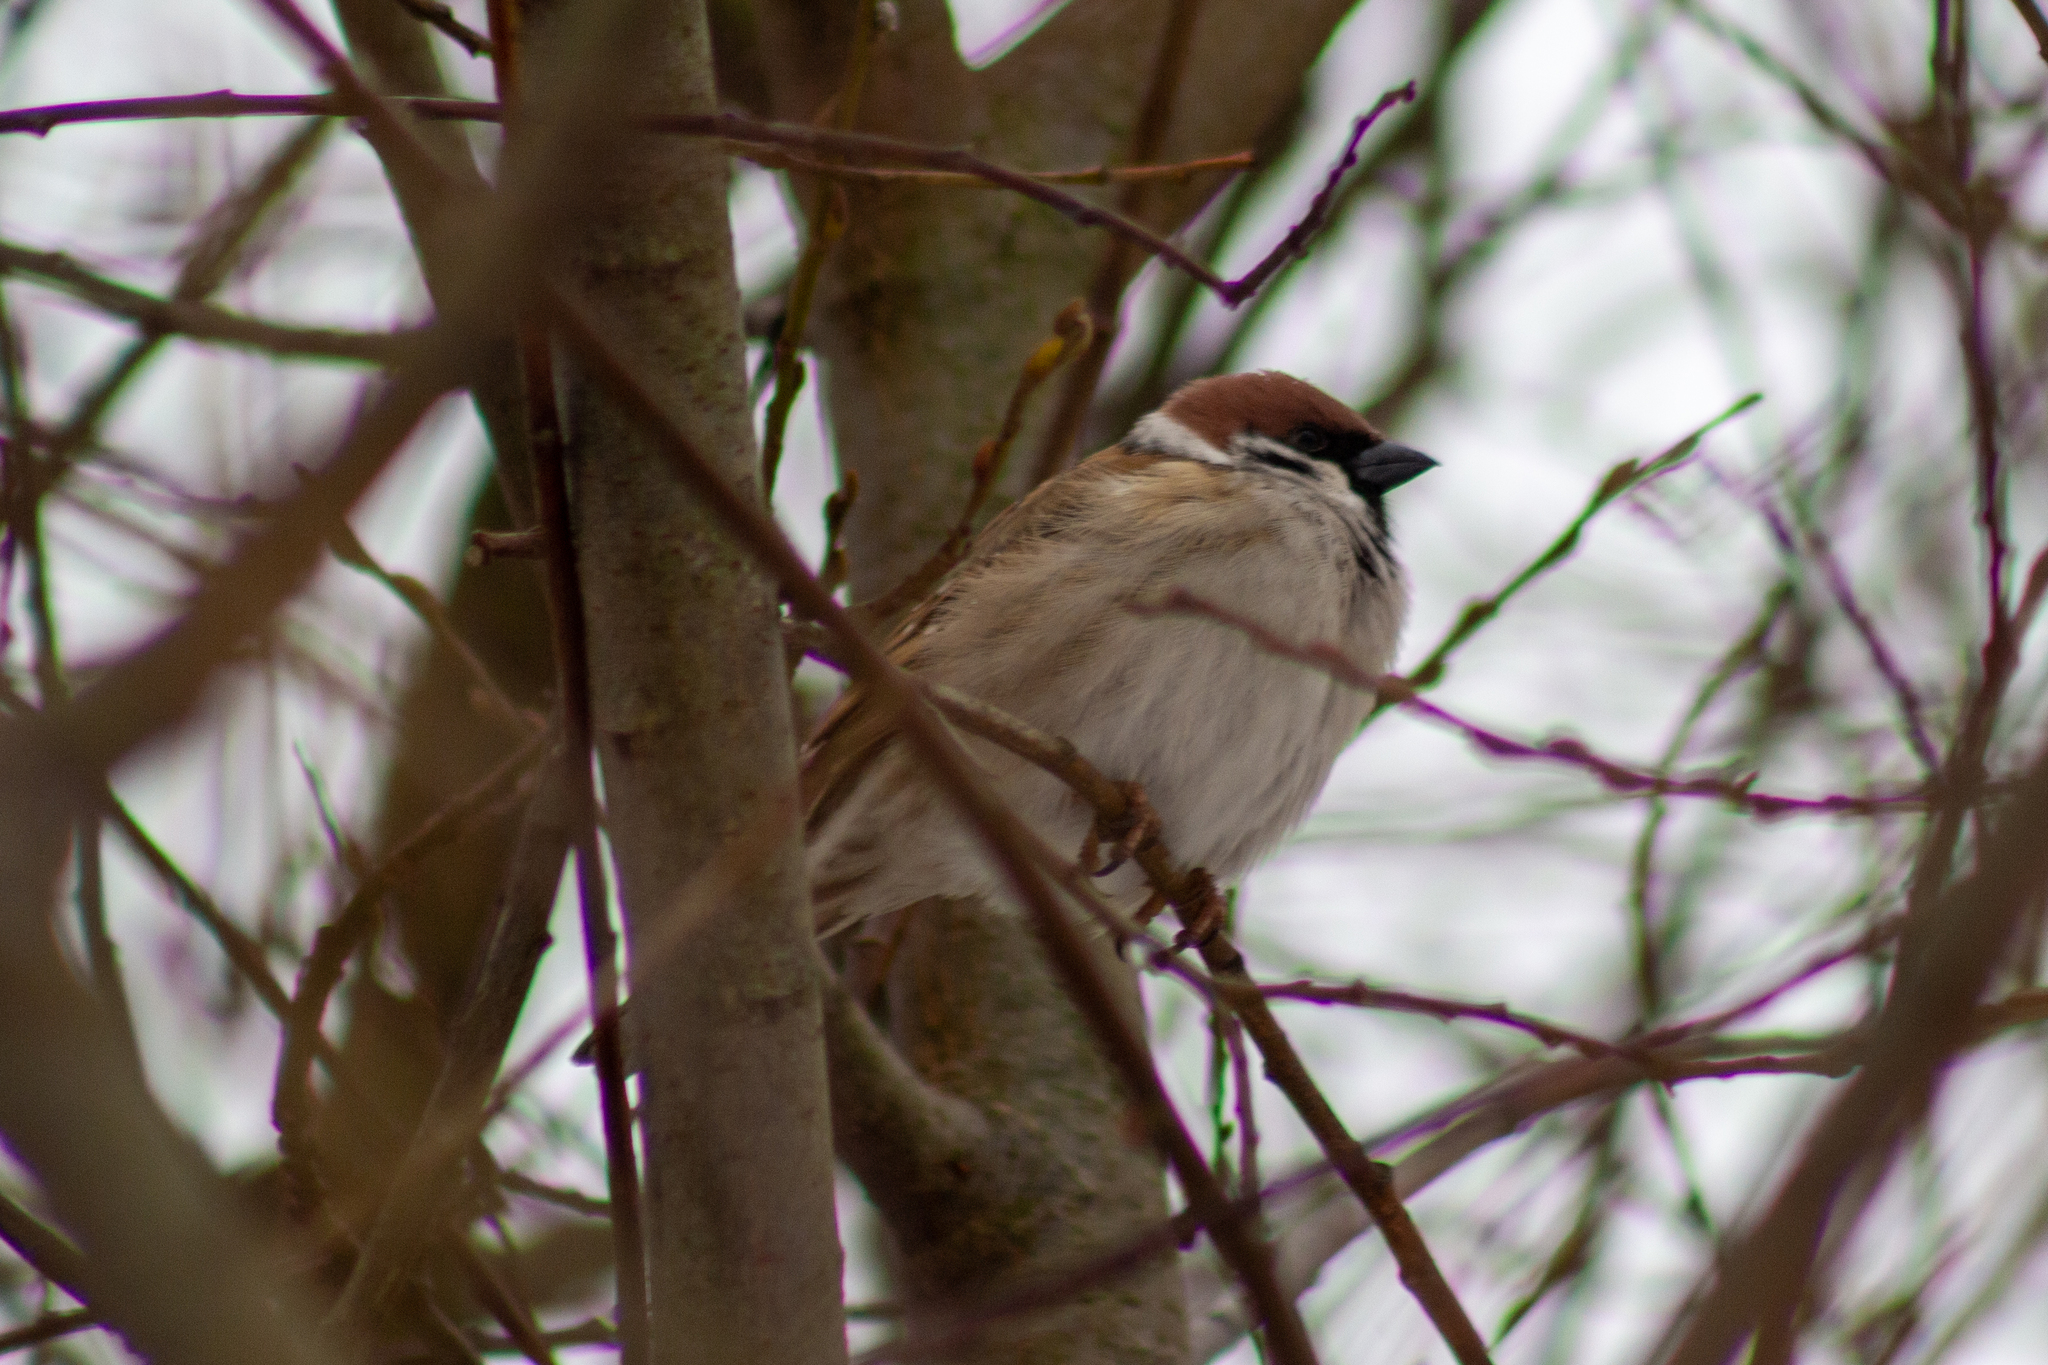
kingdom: Animalia
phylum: Chordata
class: Aves
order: Passeriformes
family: Passeridae
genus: Passer
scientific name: Passer montanus
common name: Eurasian tree sparrow
